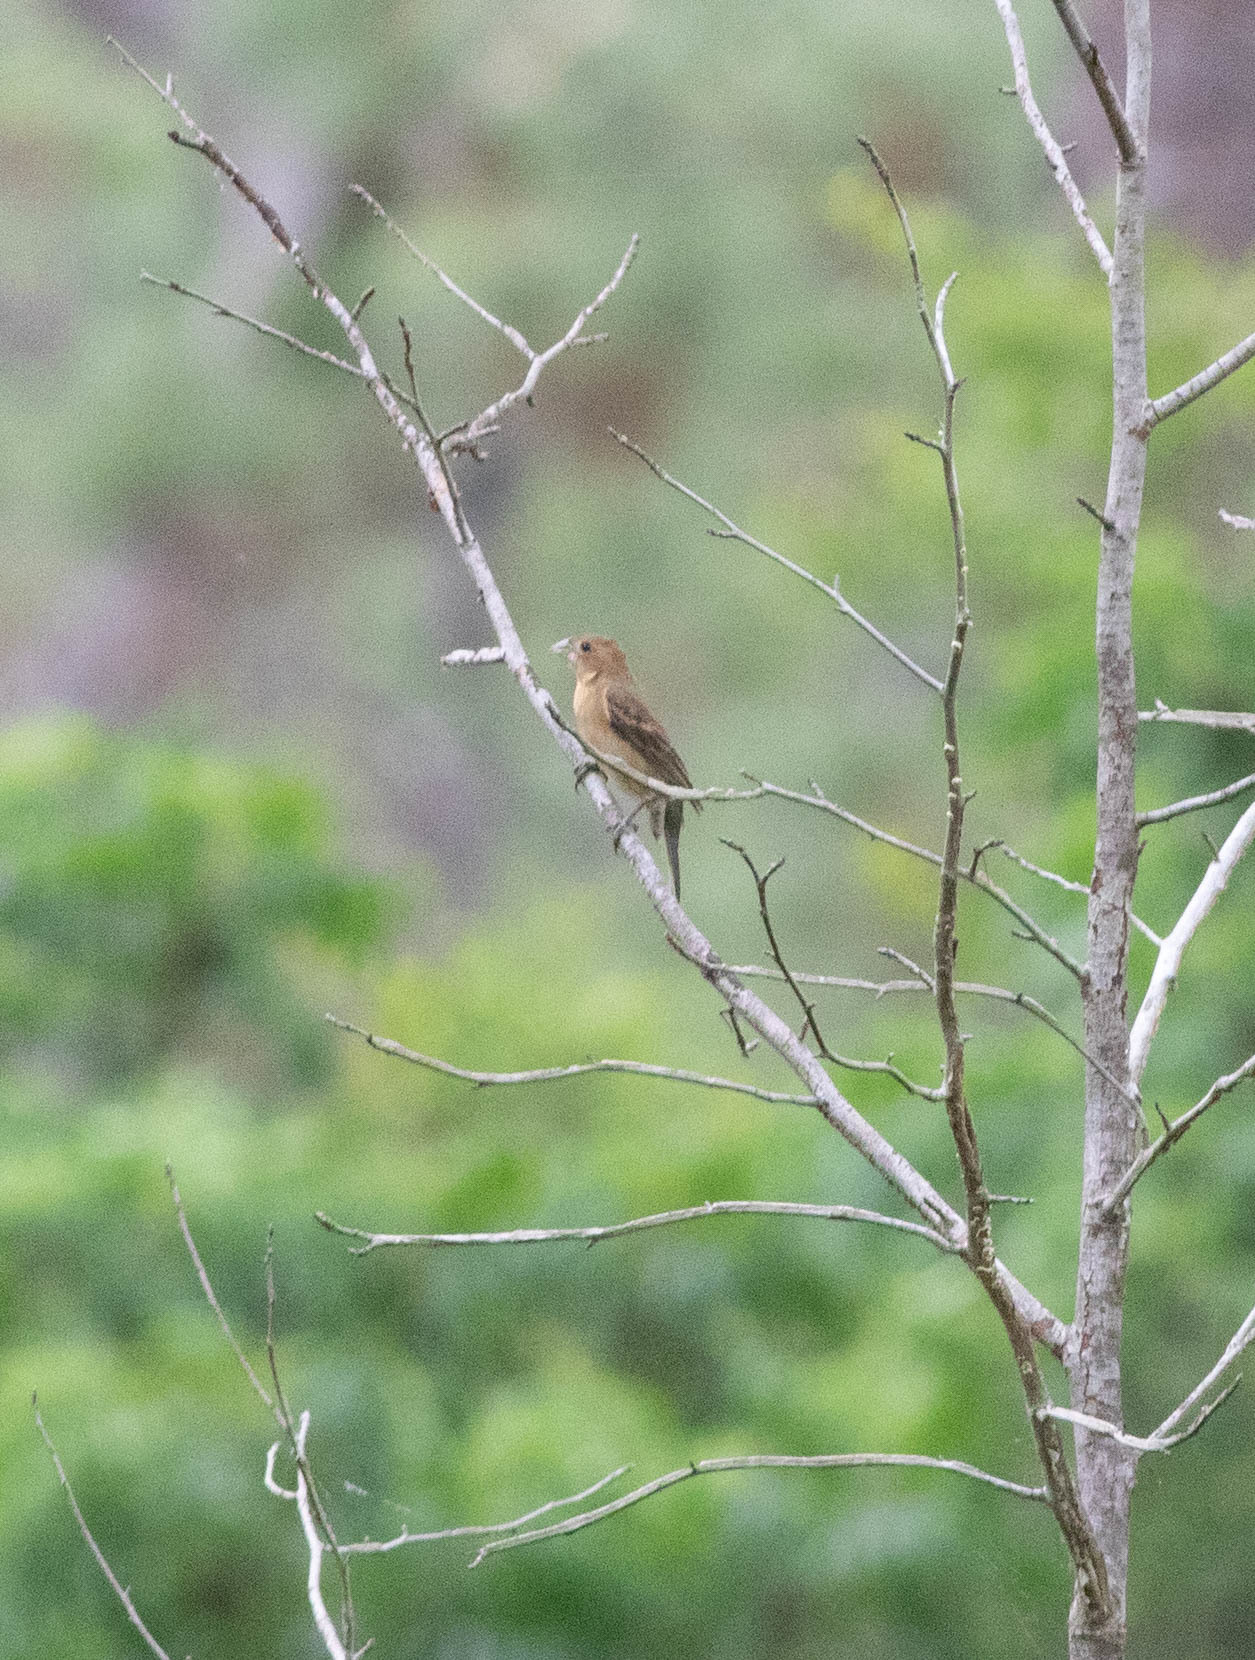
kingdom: Animalia
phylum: Chordata
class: Aves
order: Passeriformes
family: Cardinalidae
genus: Passerina
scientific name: Passerina caerulea
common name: Blue grosbeak
